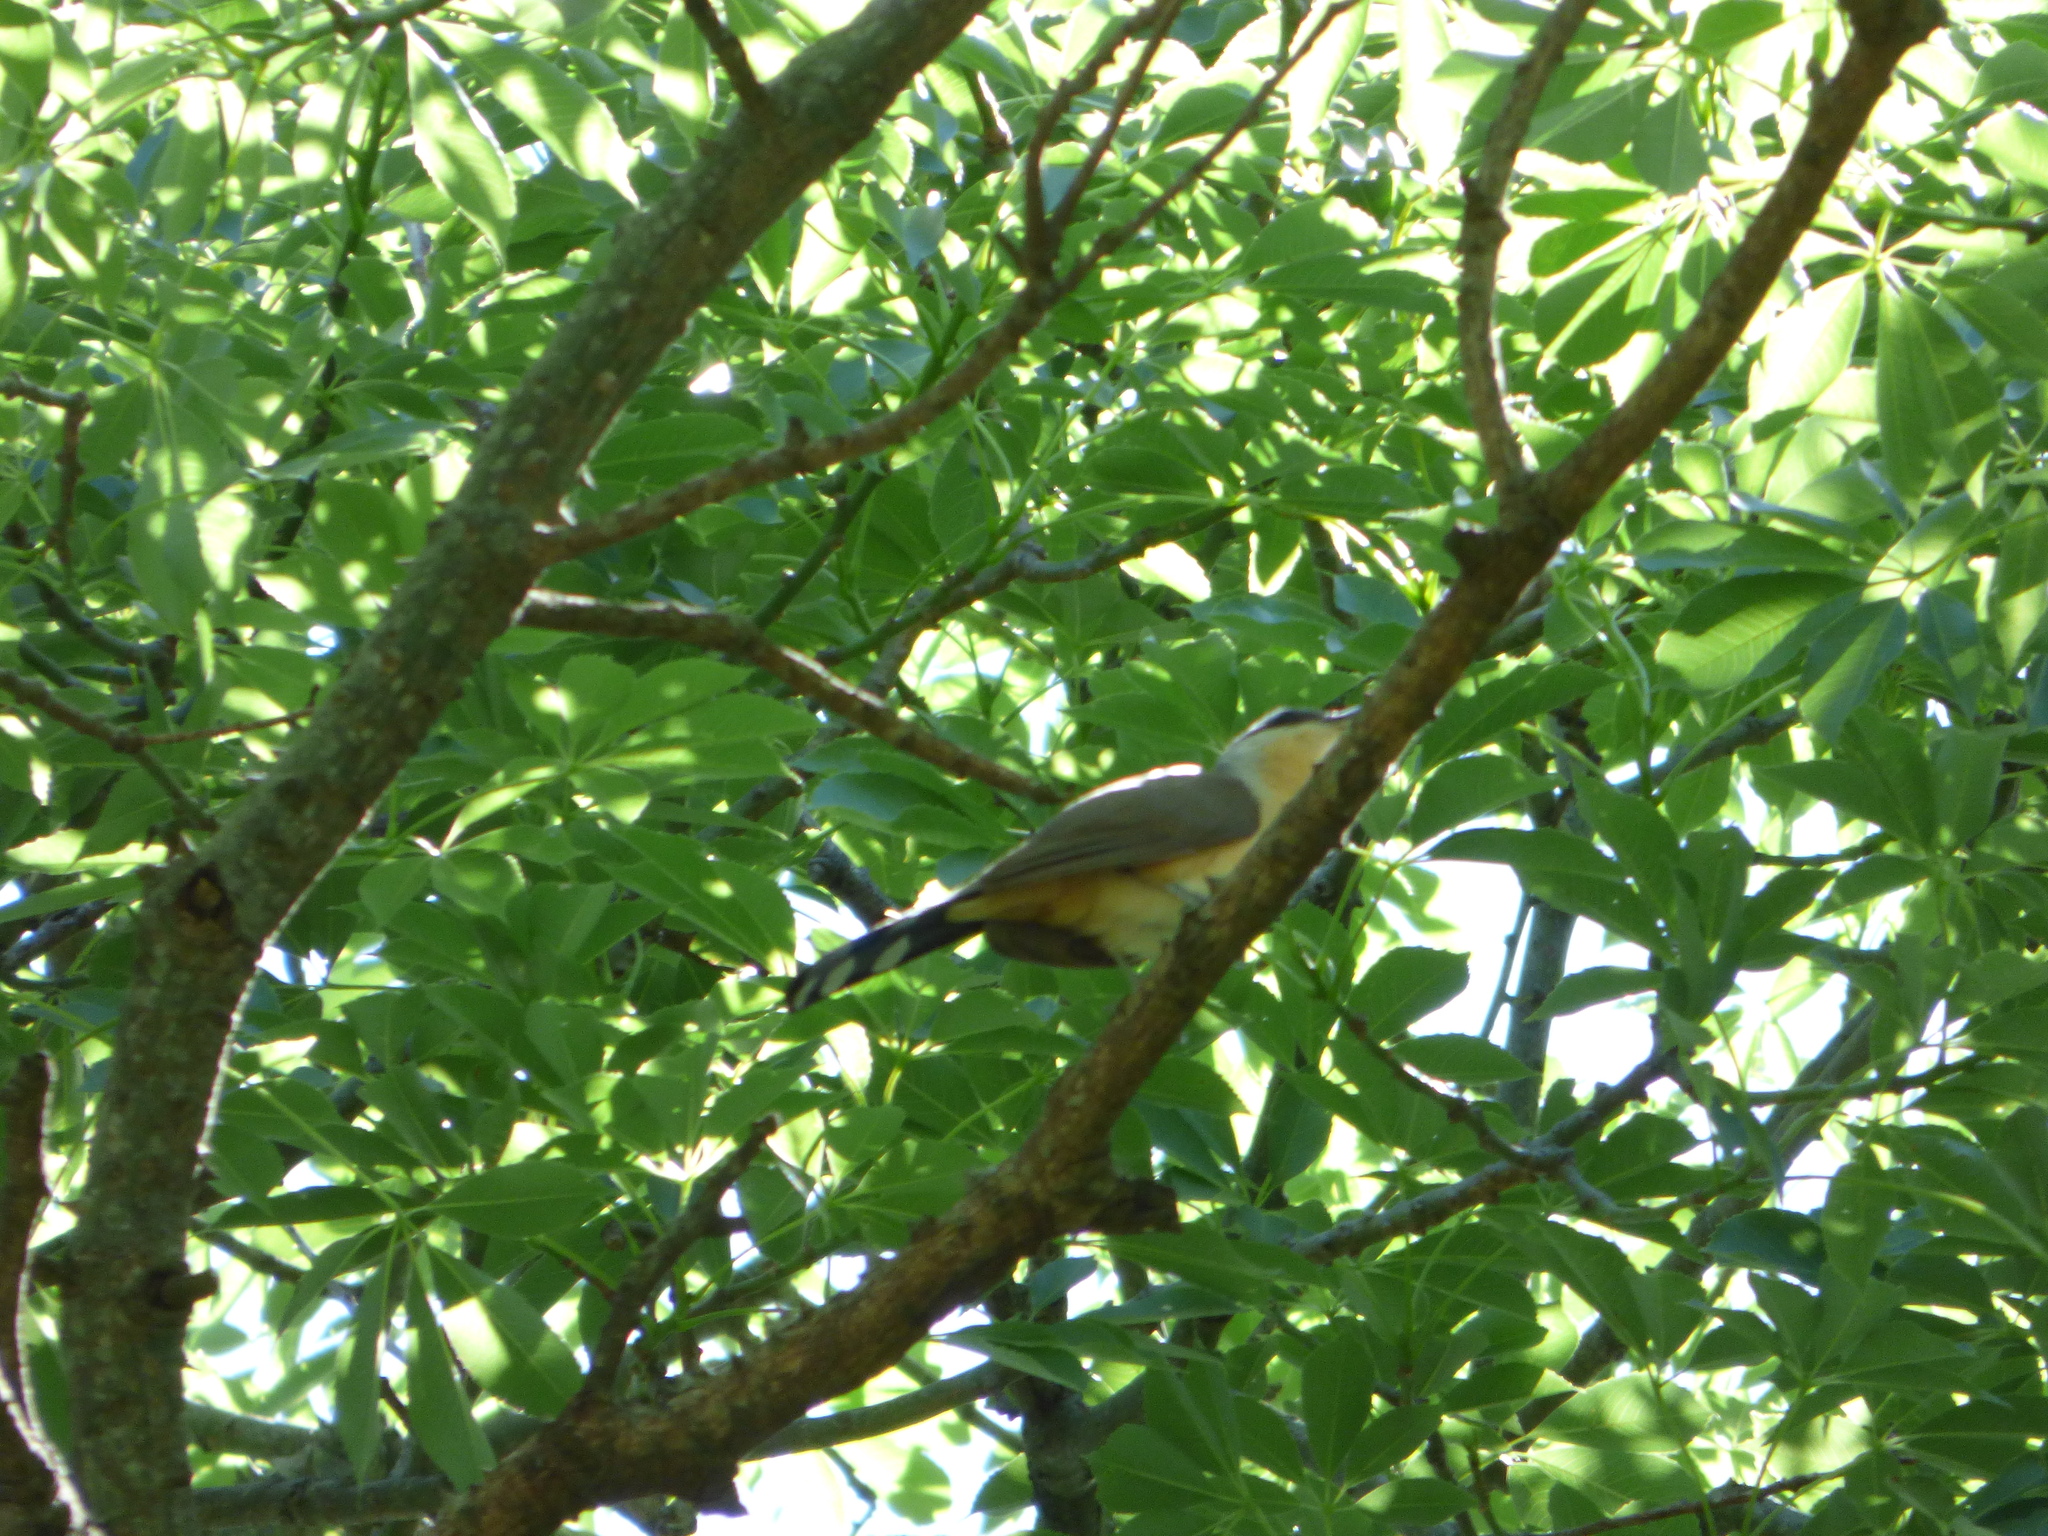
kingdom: Animalia
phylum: Chordata
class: Aves
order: Cuculiformes
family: Cuculidae
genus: Coccyzus
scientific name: Coccyzus melacoryphus
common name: Dark-billed cuckoo
